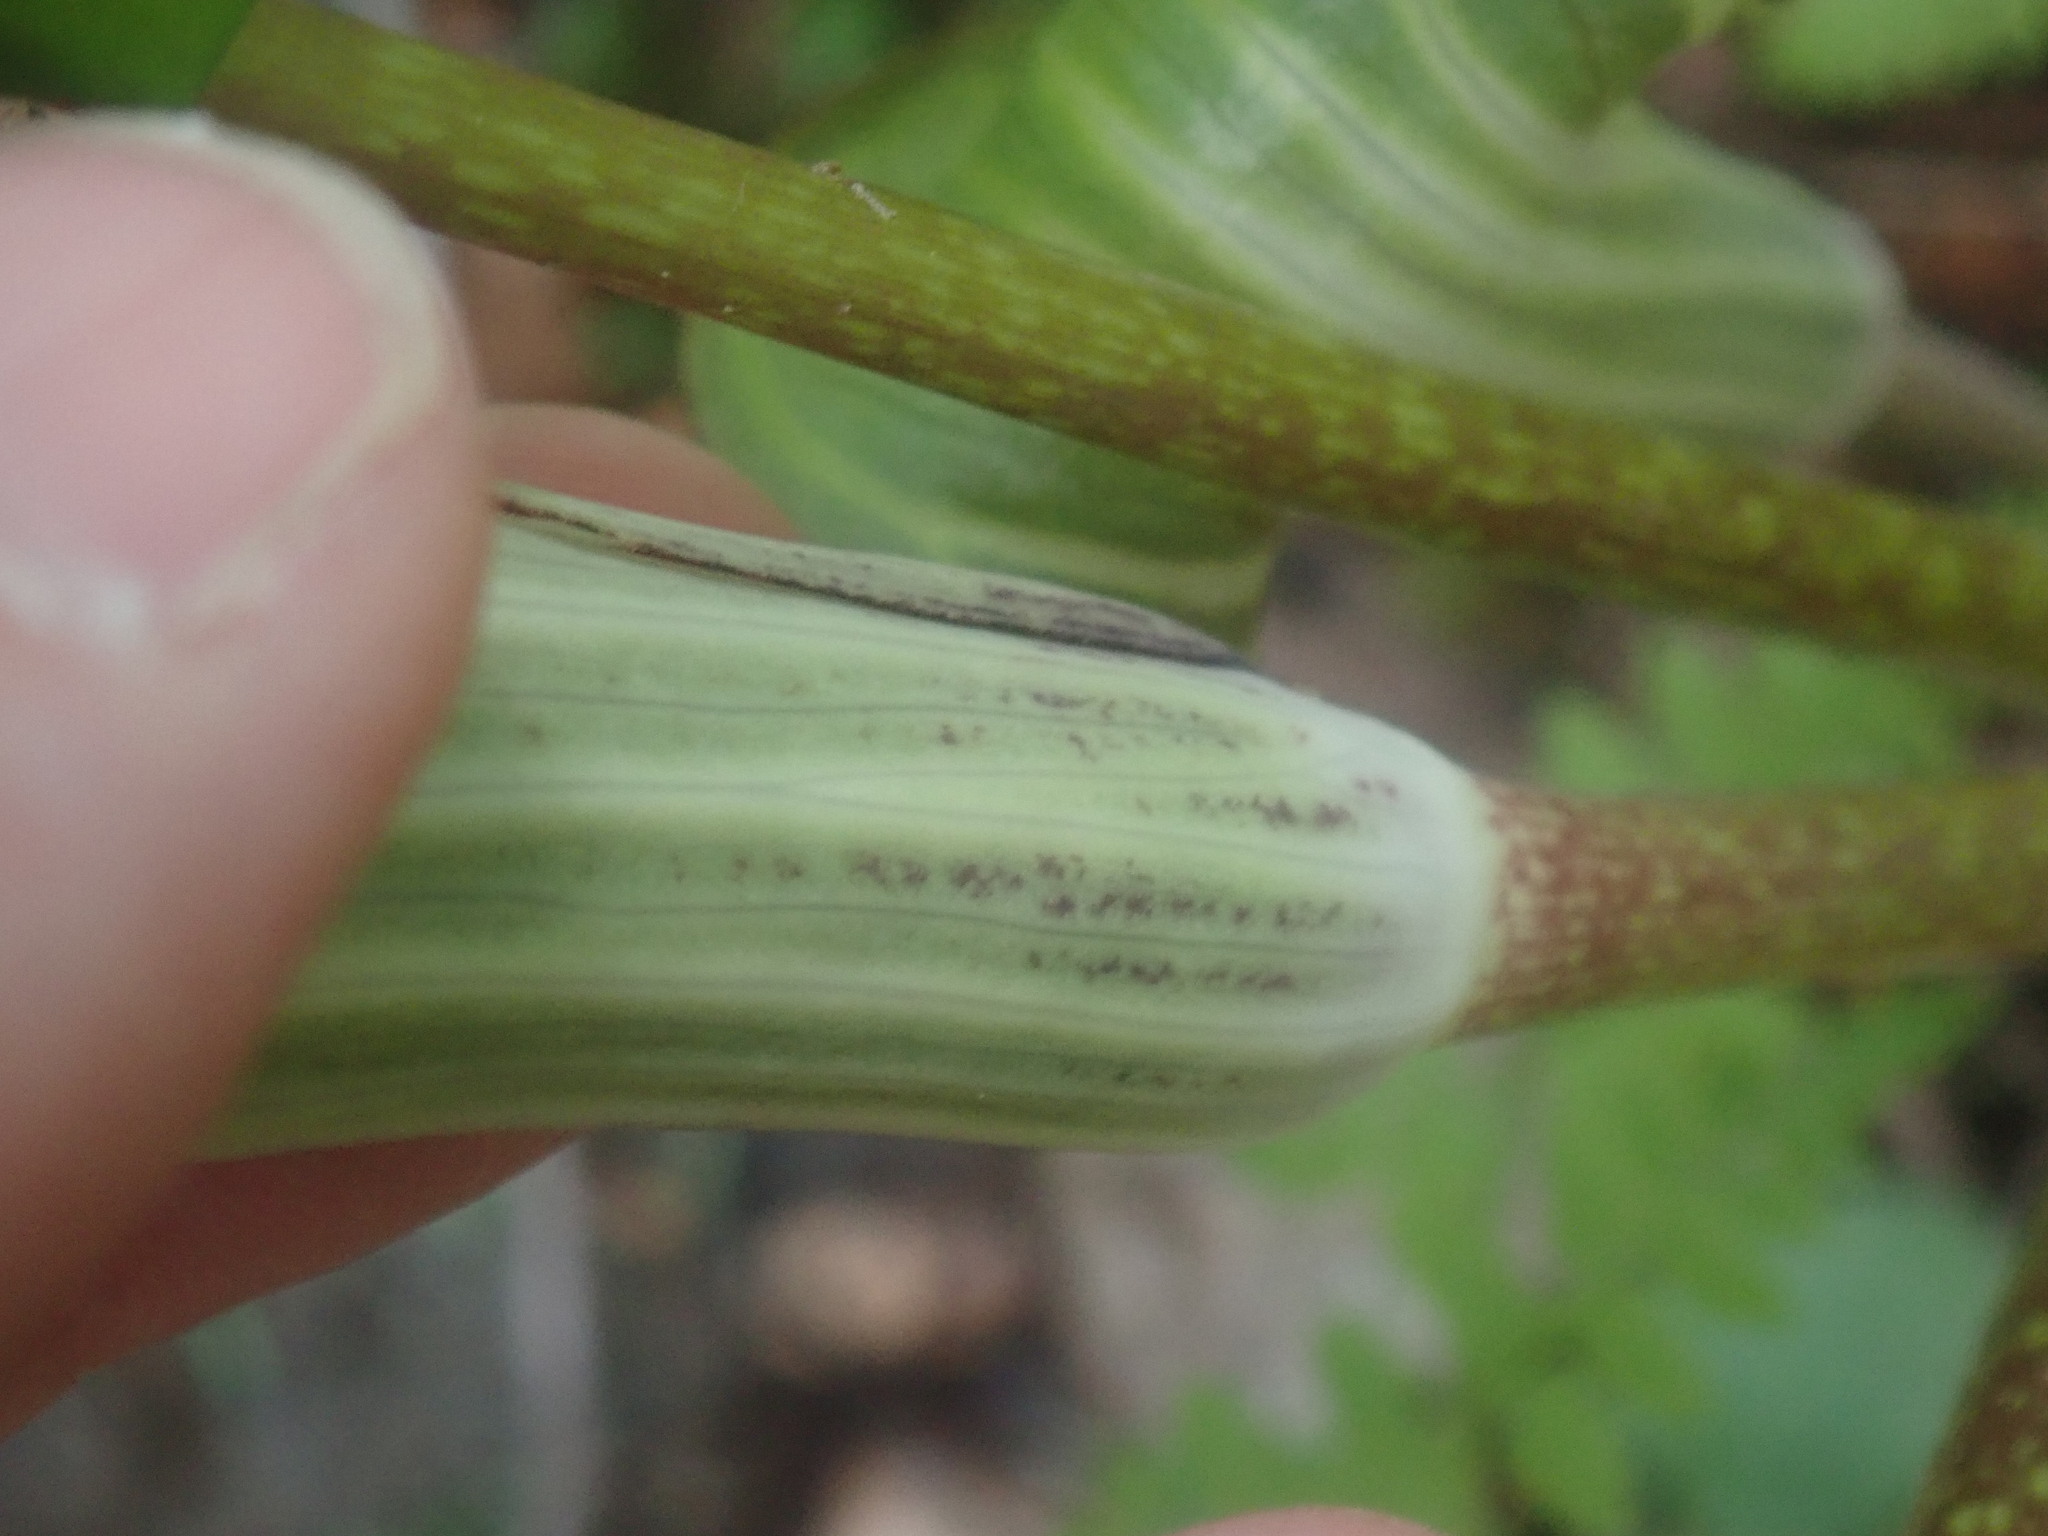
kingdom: Plantae
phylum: Tracheophyta
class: Liliopsida
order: Alismatales
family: Araceae
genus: Arisaema
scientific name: Arisaema triphyllum
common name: Jack-in-the-pulpit
